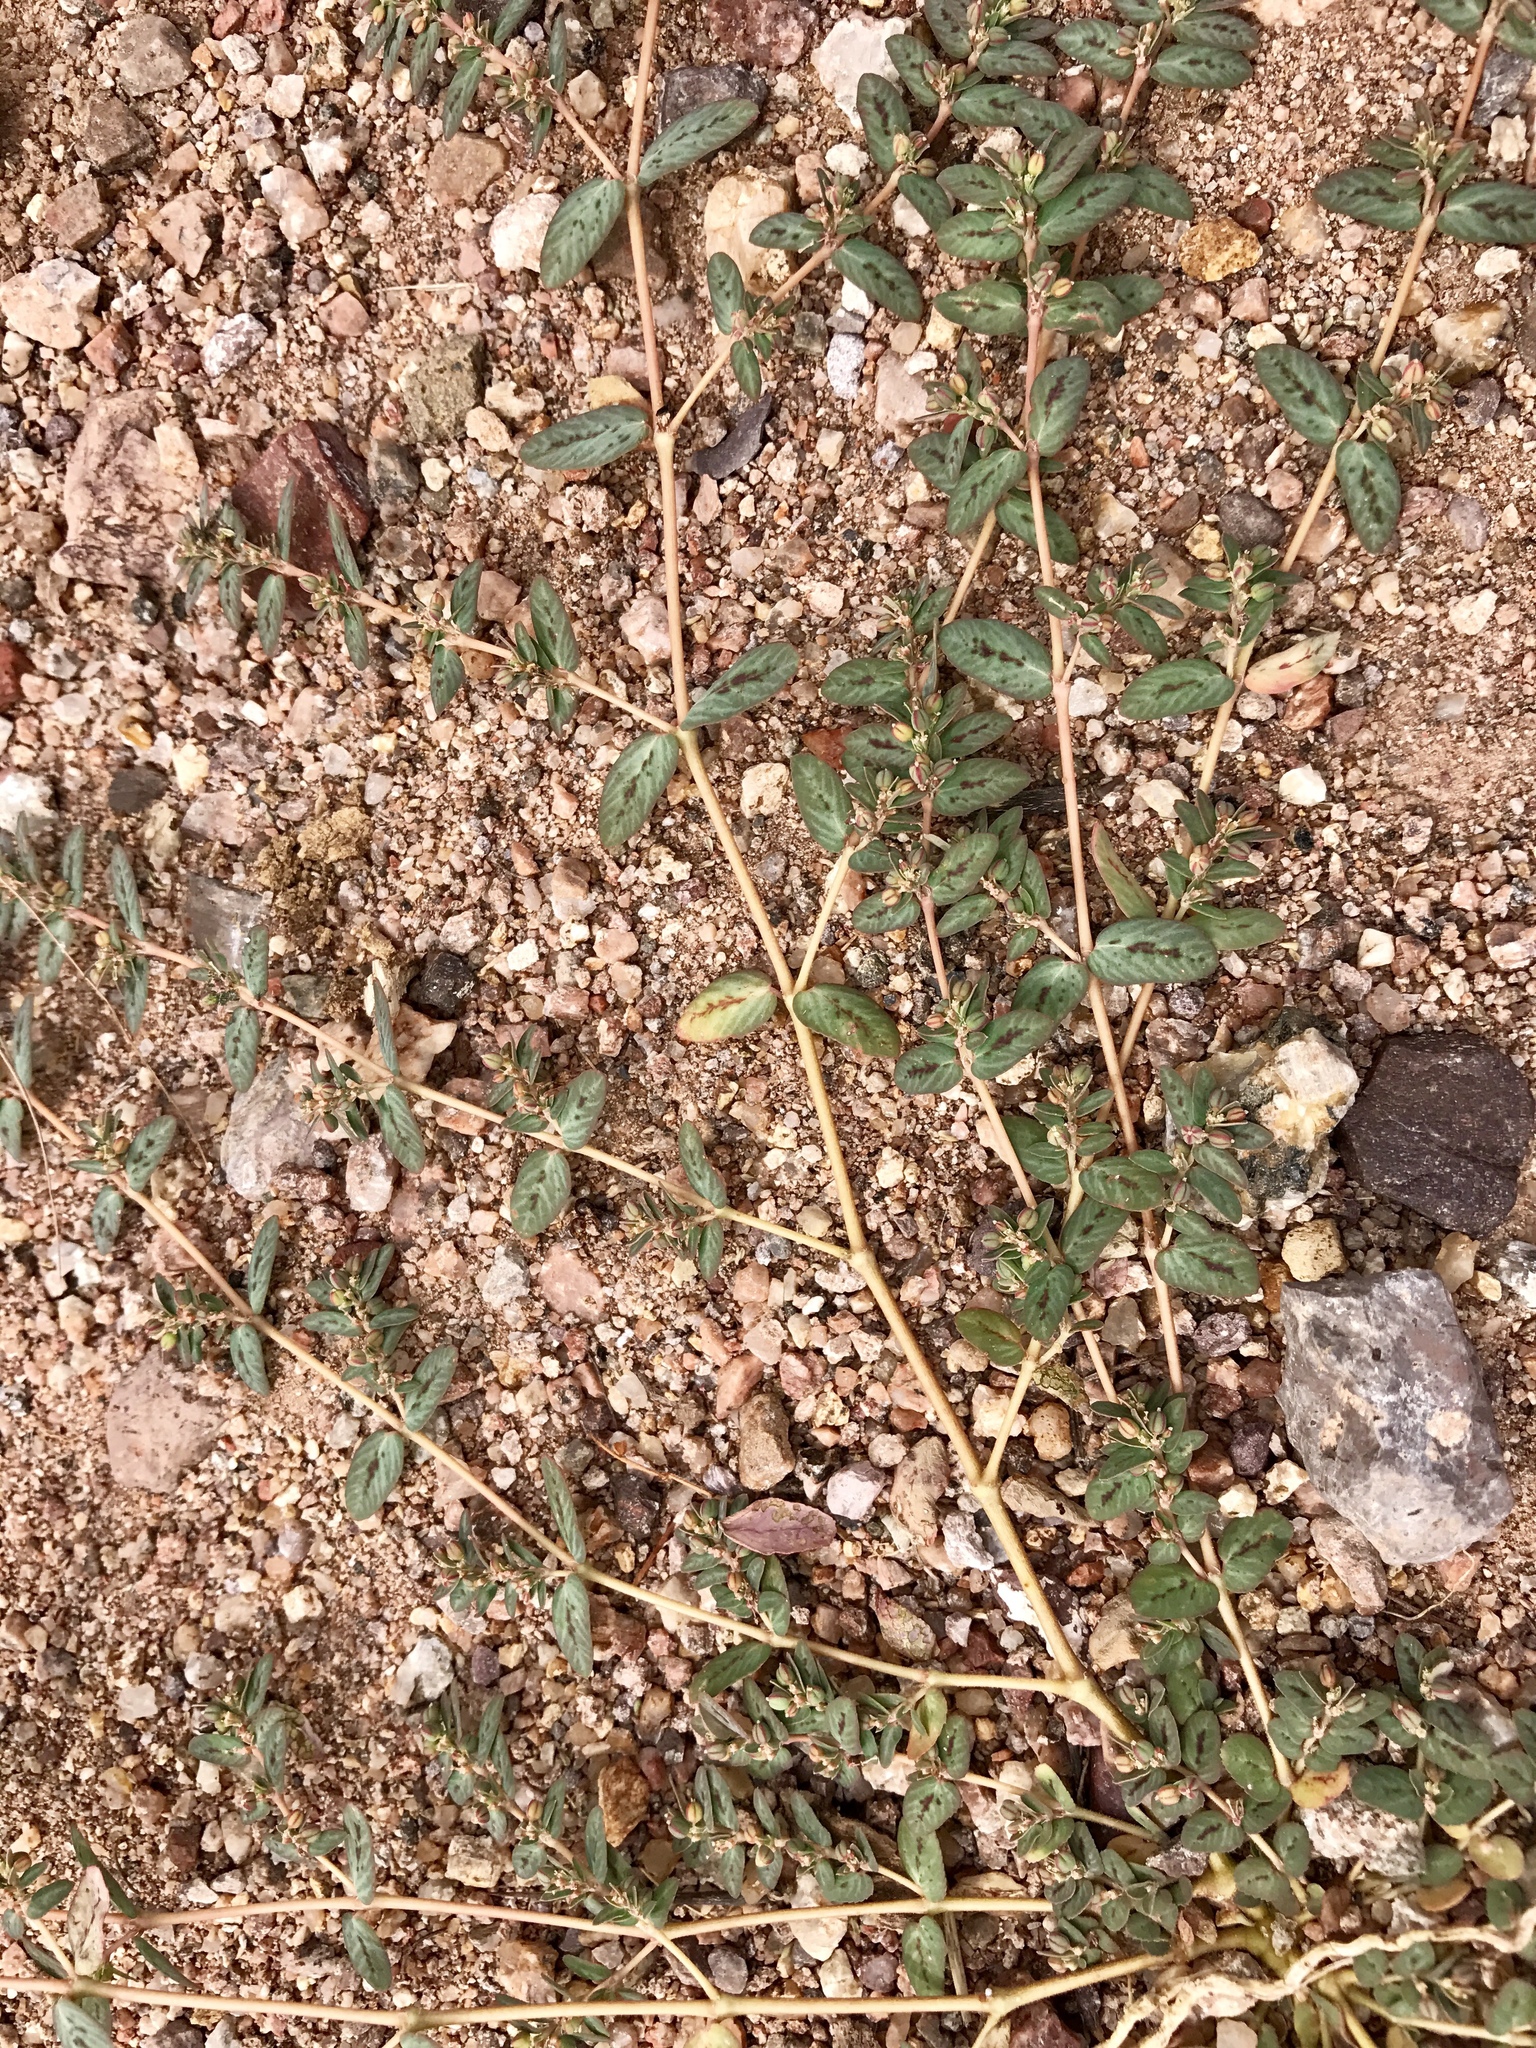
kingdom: Plantae
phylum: Tracheophyta
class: Magnoliopsida
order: Malpighiales
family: Euphorbiaceae
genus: Euphorbia
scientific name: Euphorbia abramsiana
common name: Abram's spurge
